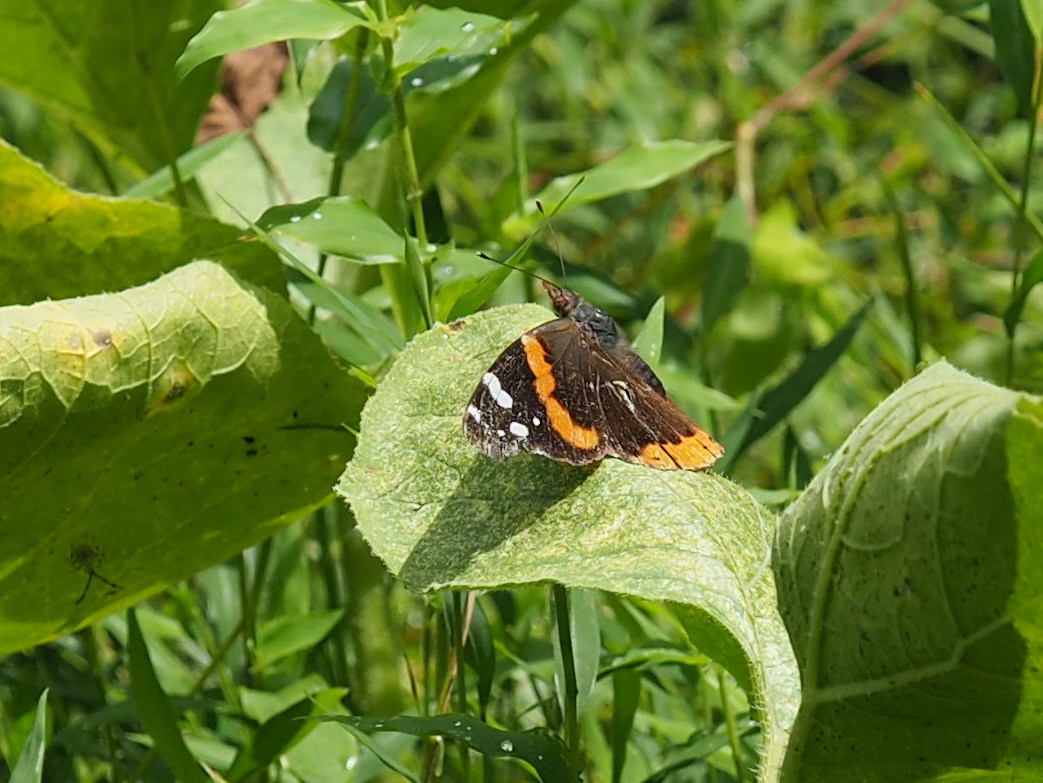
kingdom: Animalia
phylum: Arthropoda
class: Insecta
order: Lepidoptera
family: Nymphalidae
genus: Vanessa
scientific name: Vanessa atalanta
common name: Red admiral
